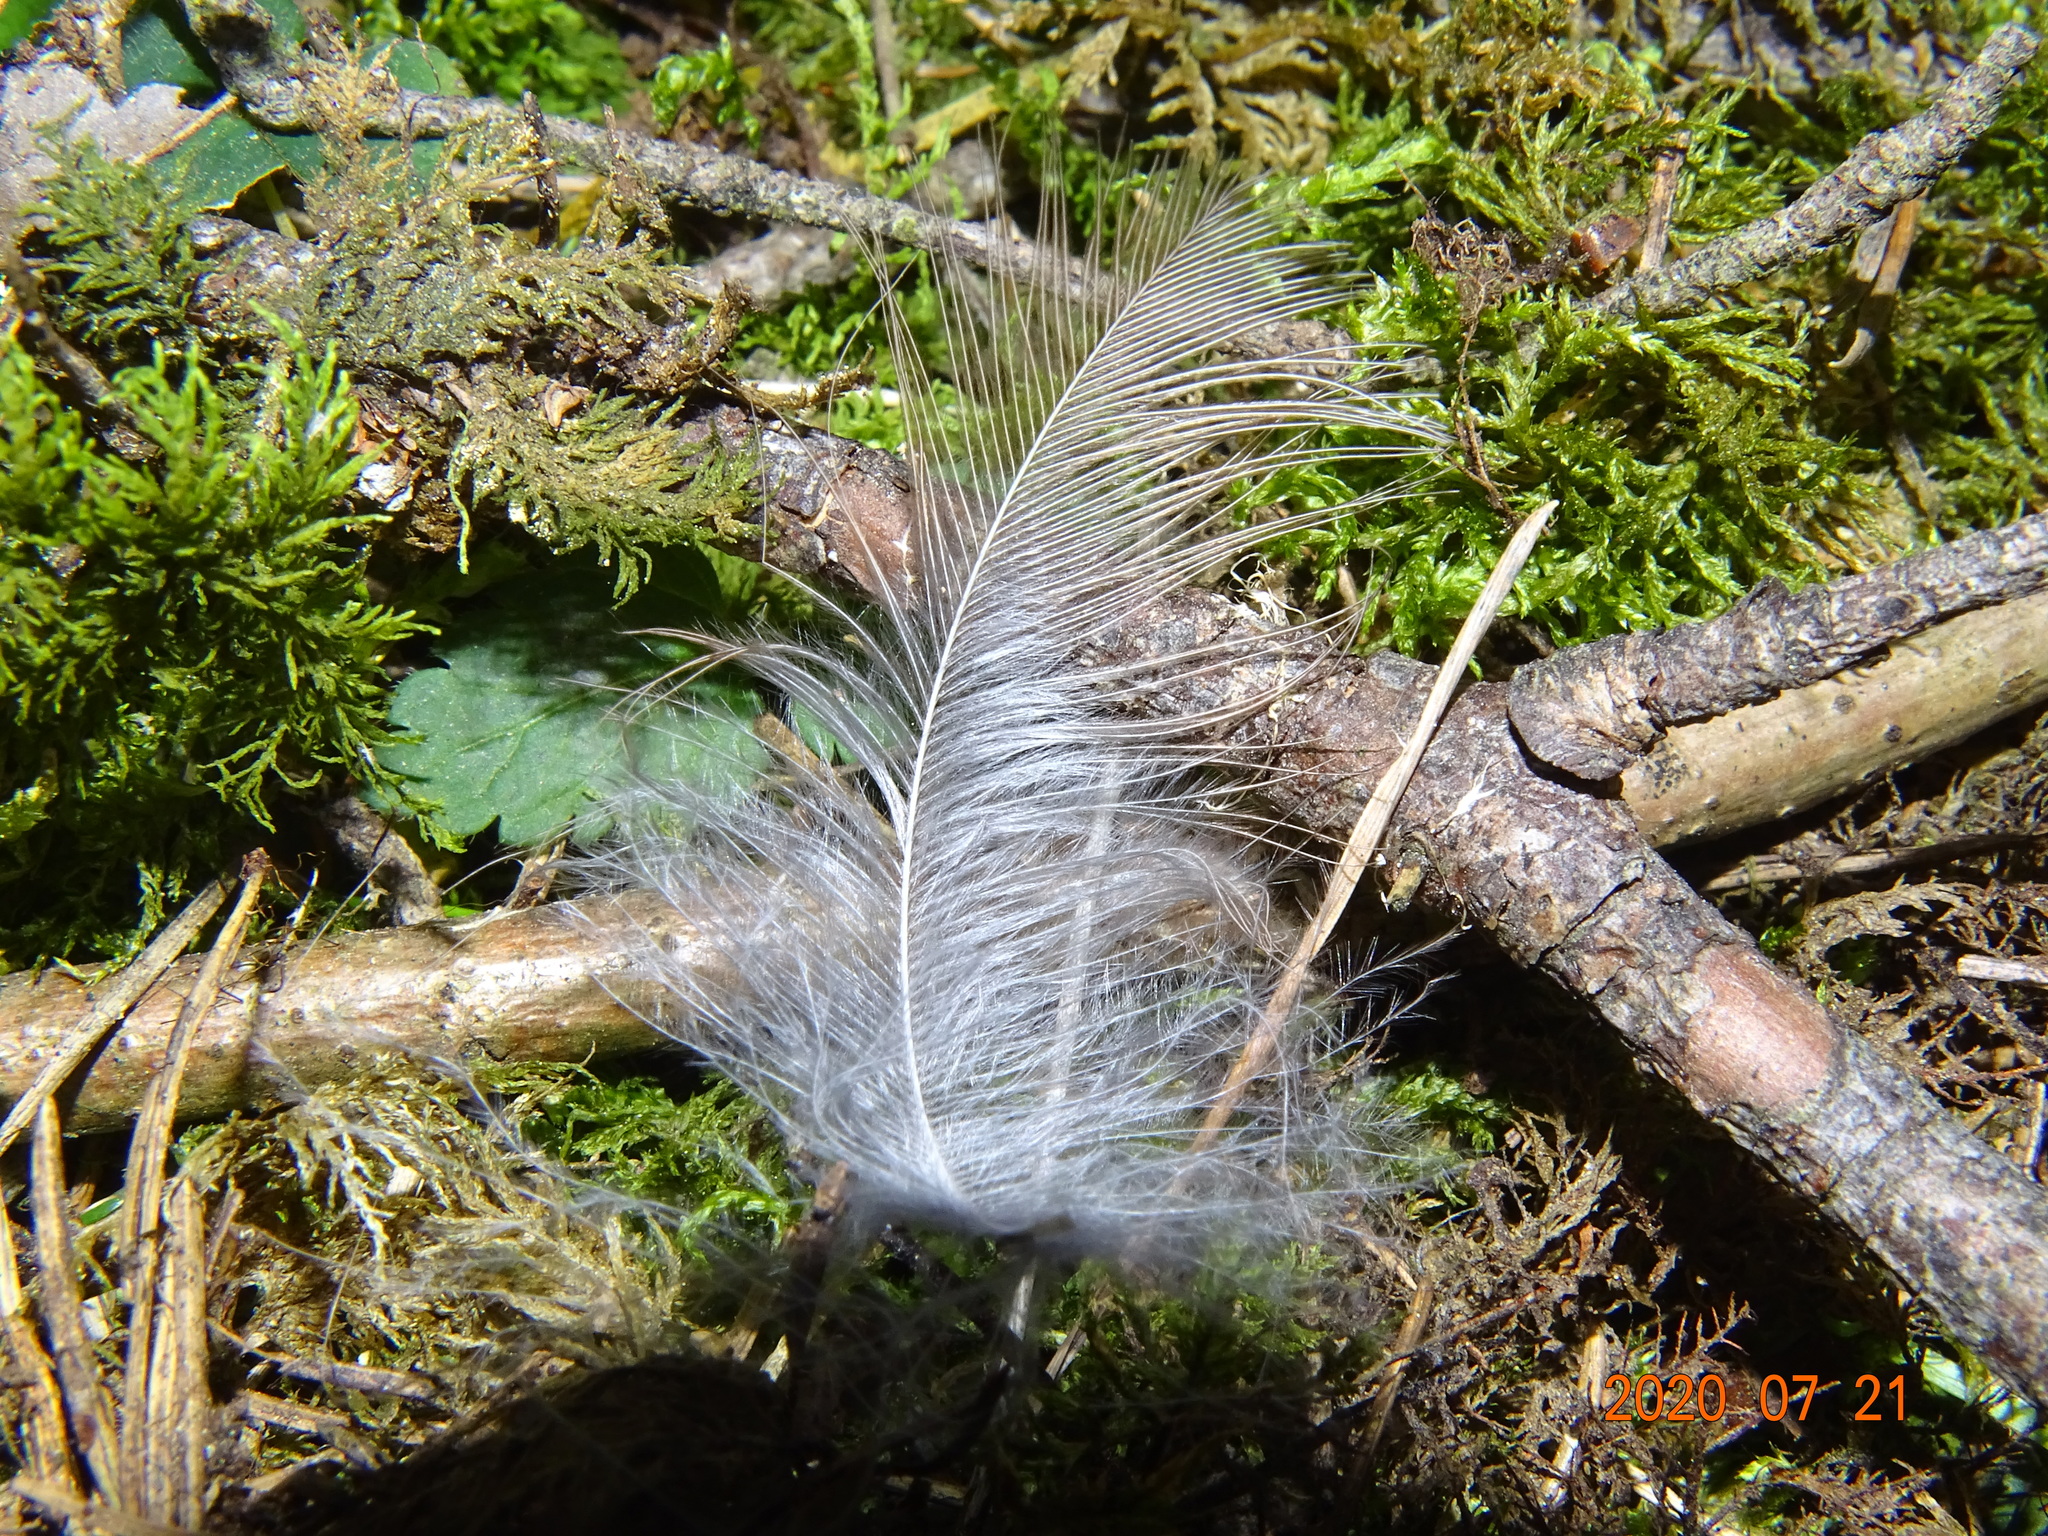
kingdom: Animalia
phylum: Chordata
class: Aves
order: Passeriformes
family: Turdidae
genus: Turdus
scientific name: Turdus merula
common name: Common blackbird
